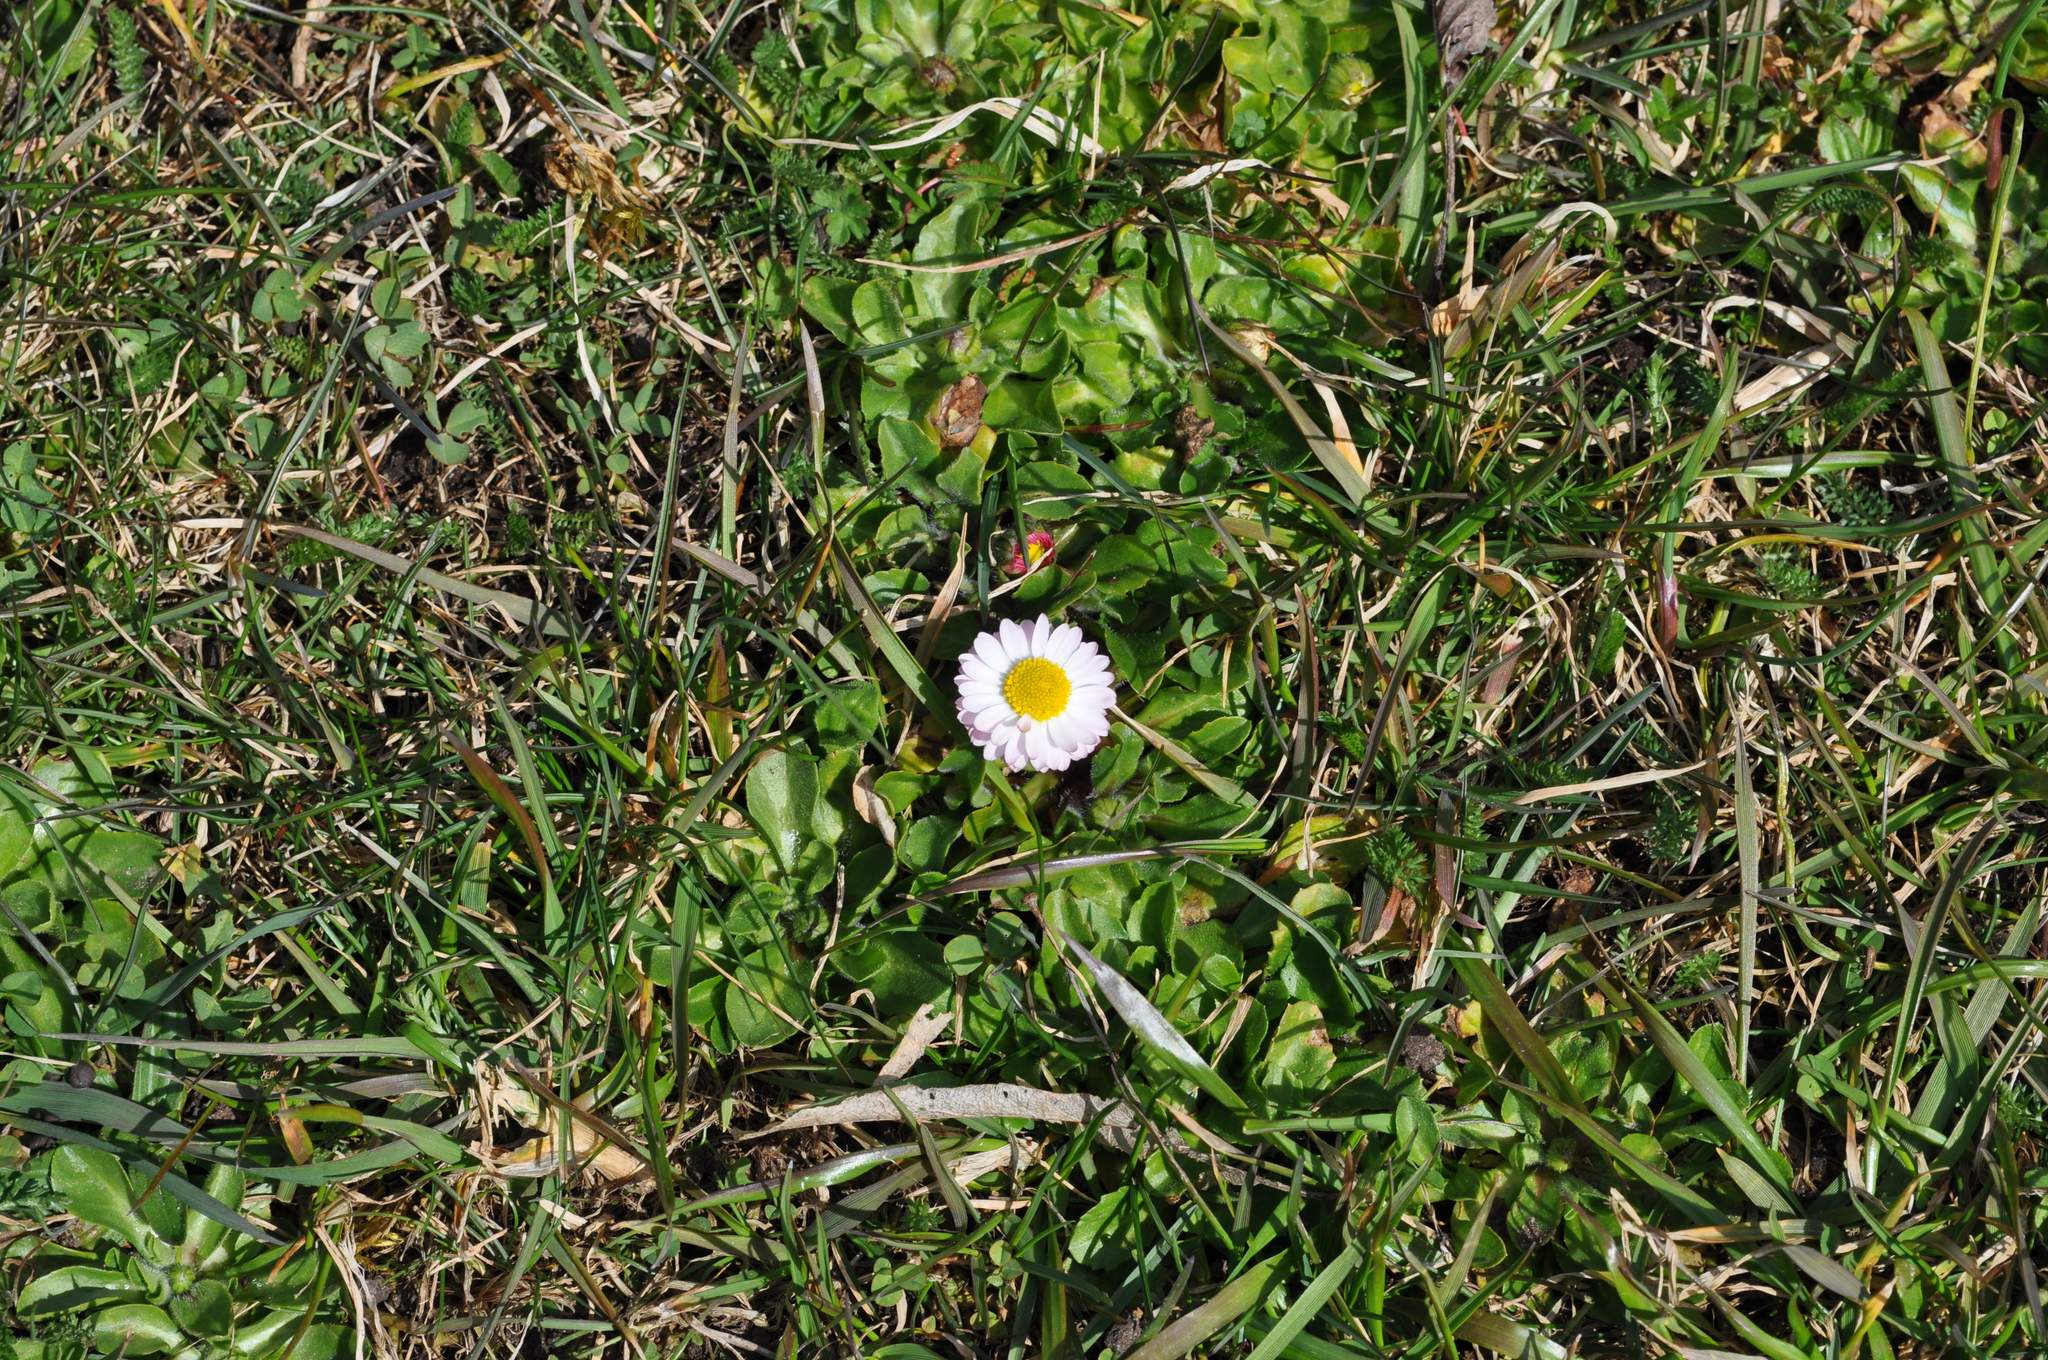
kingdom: Plantae
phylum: Tracheophyta
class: Magnoliopsida
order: Asterales
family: Asteraceae
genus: Bellis
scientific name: Bellis perennis
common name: Lawndaisy
